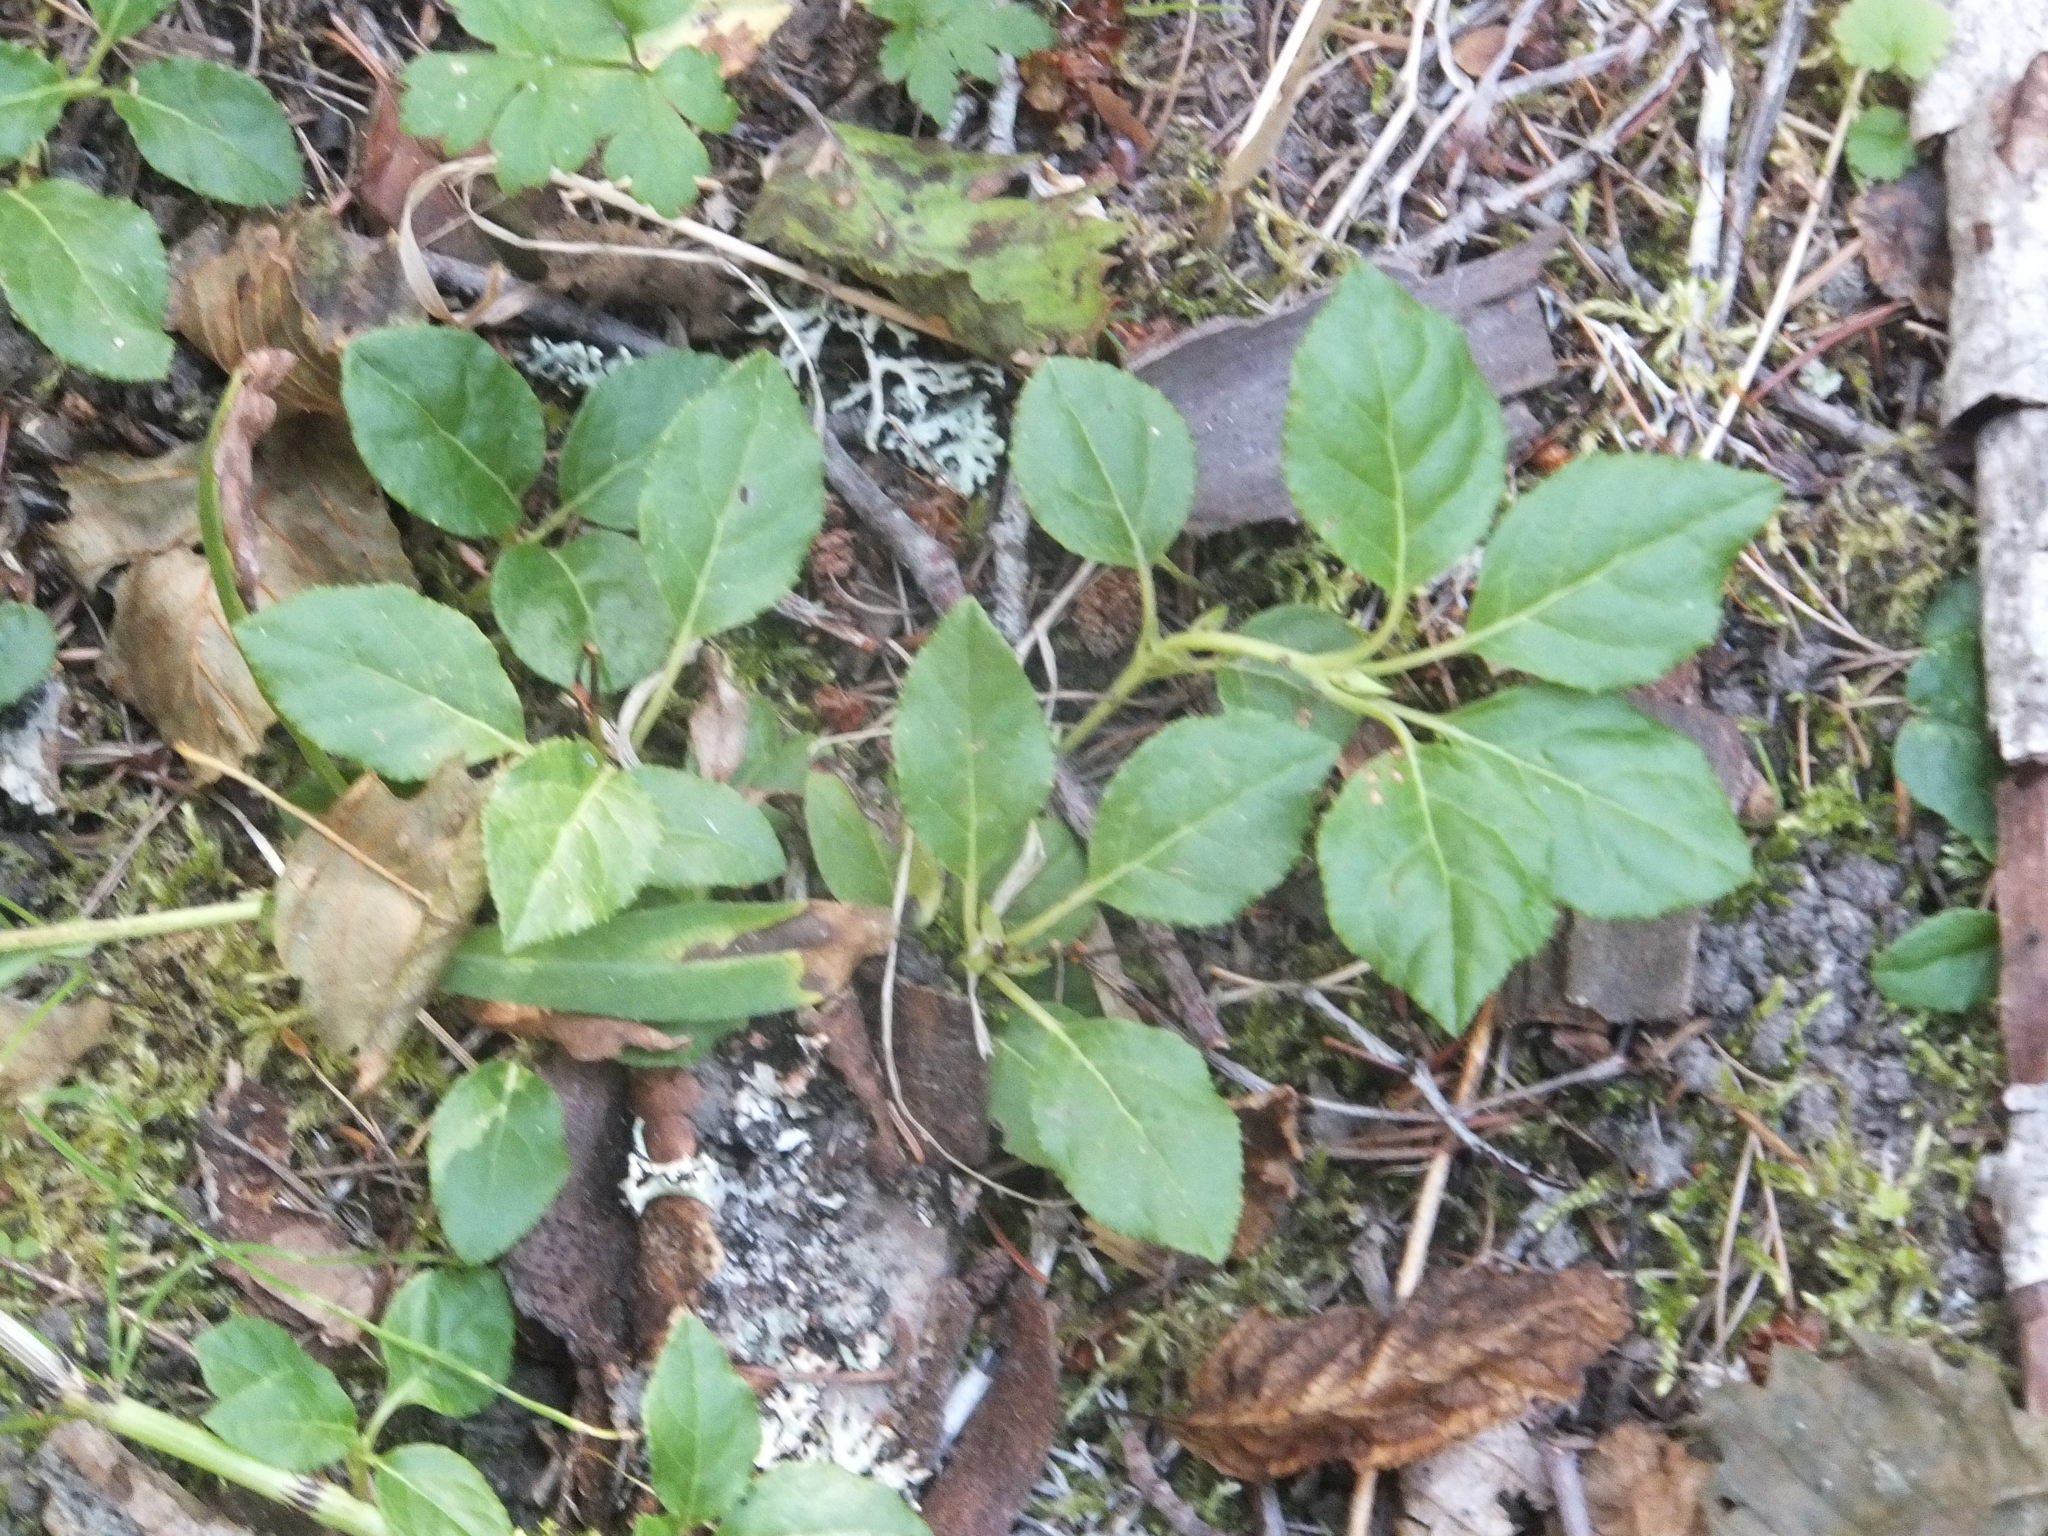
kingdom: Plantae
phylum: Tracheophyta
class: Magnoliopsida
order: Ericales
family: Ericaceae
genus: Orthilia
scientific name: Orthilia secunda
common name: One-sided orthilia
